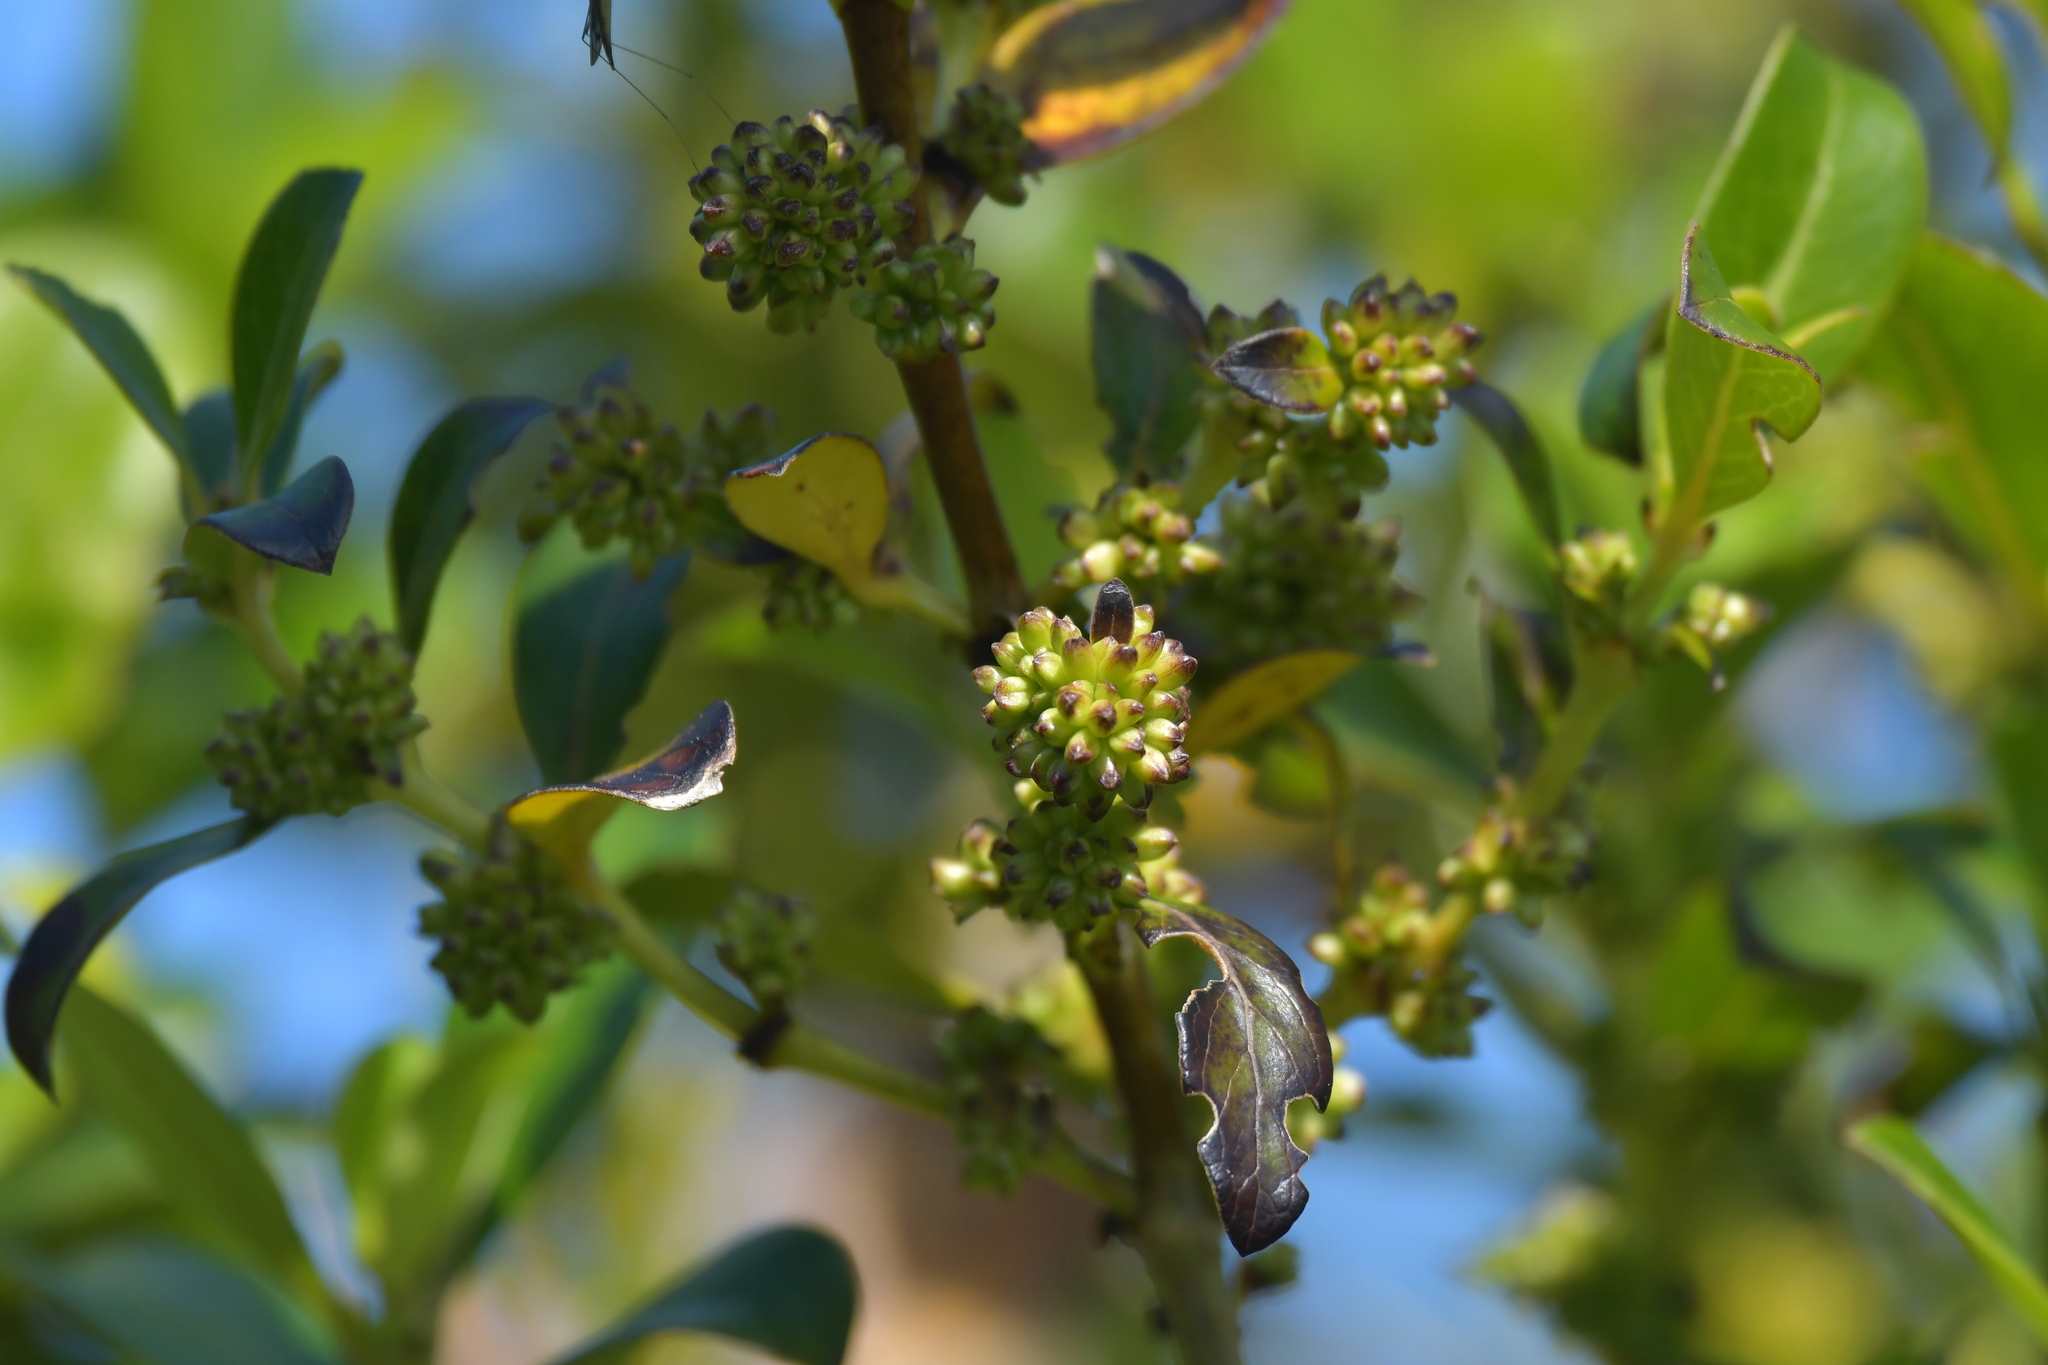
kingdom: Plantae
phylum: Tracheophyta
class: Magnoliopsida
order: Gentianales
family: Rubiaceae
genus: Coprosma
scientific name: Coprosma robusta
